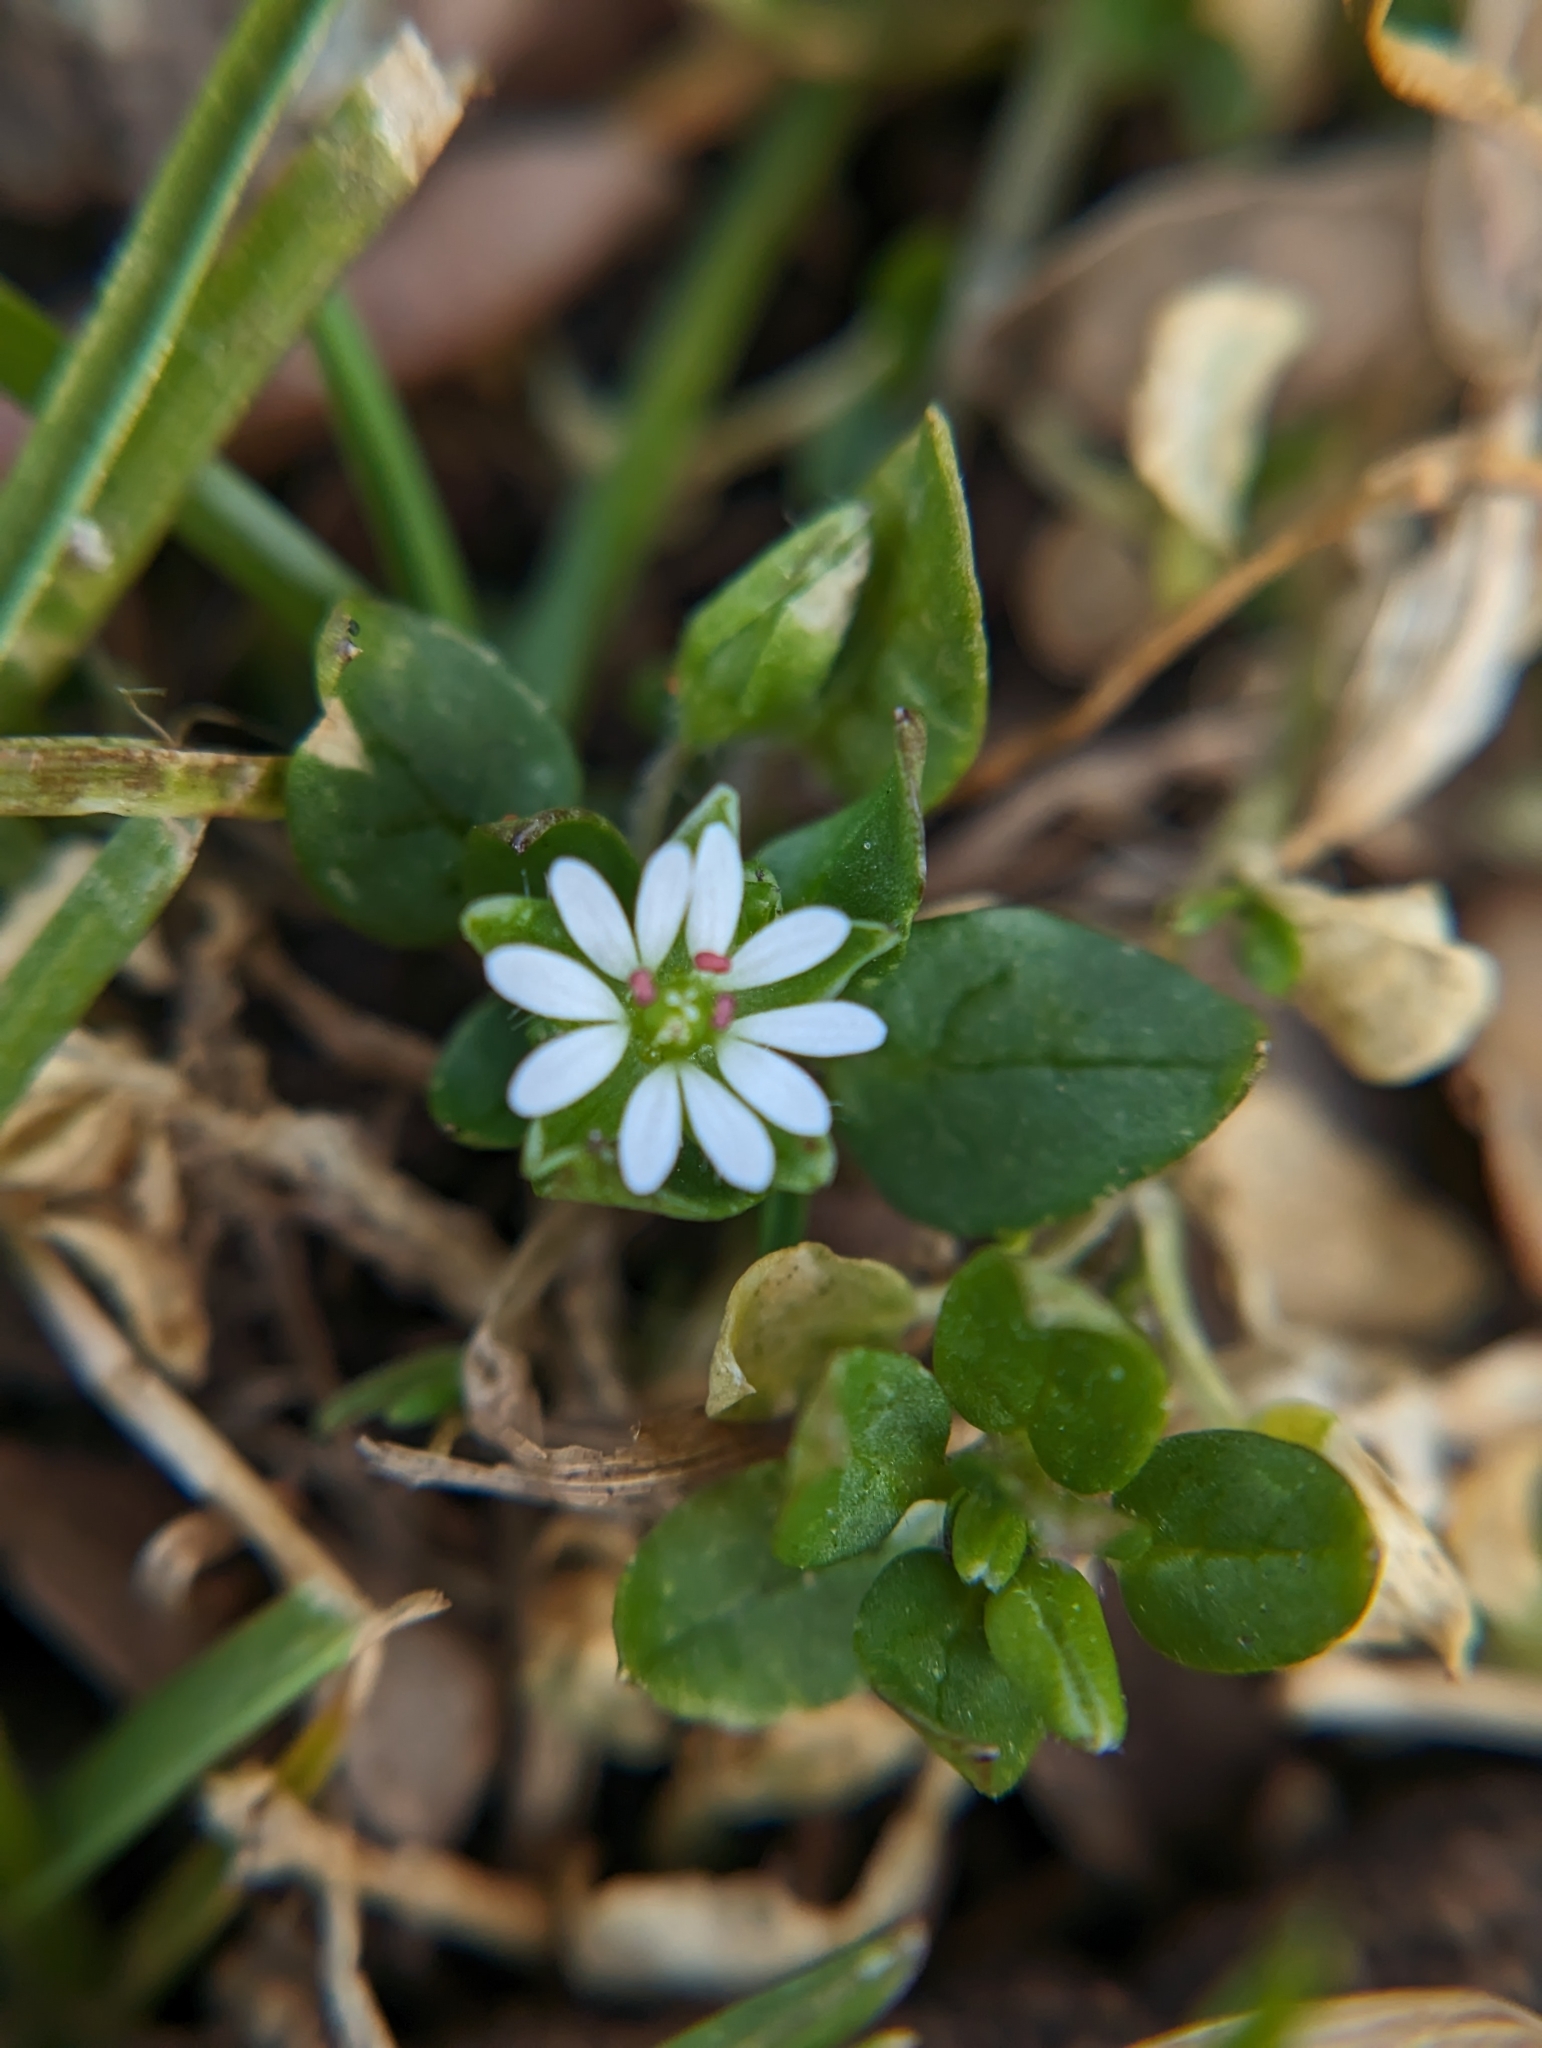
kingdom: Plantae
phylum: Tracheophyta
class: Magnoliopsida
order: Caryophyllales
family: Caryophyllaceae
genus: Stellaria
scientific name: Stellaria media
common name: Common chickweed
